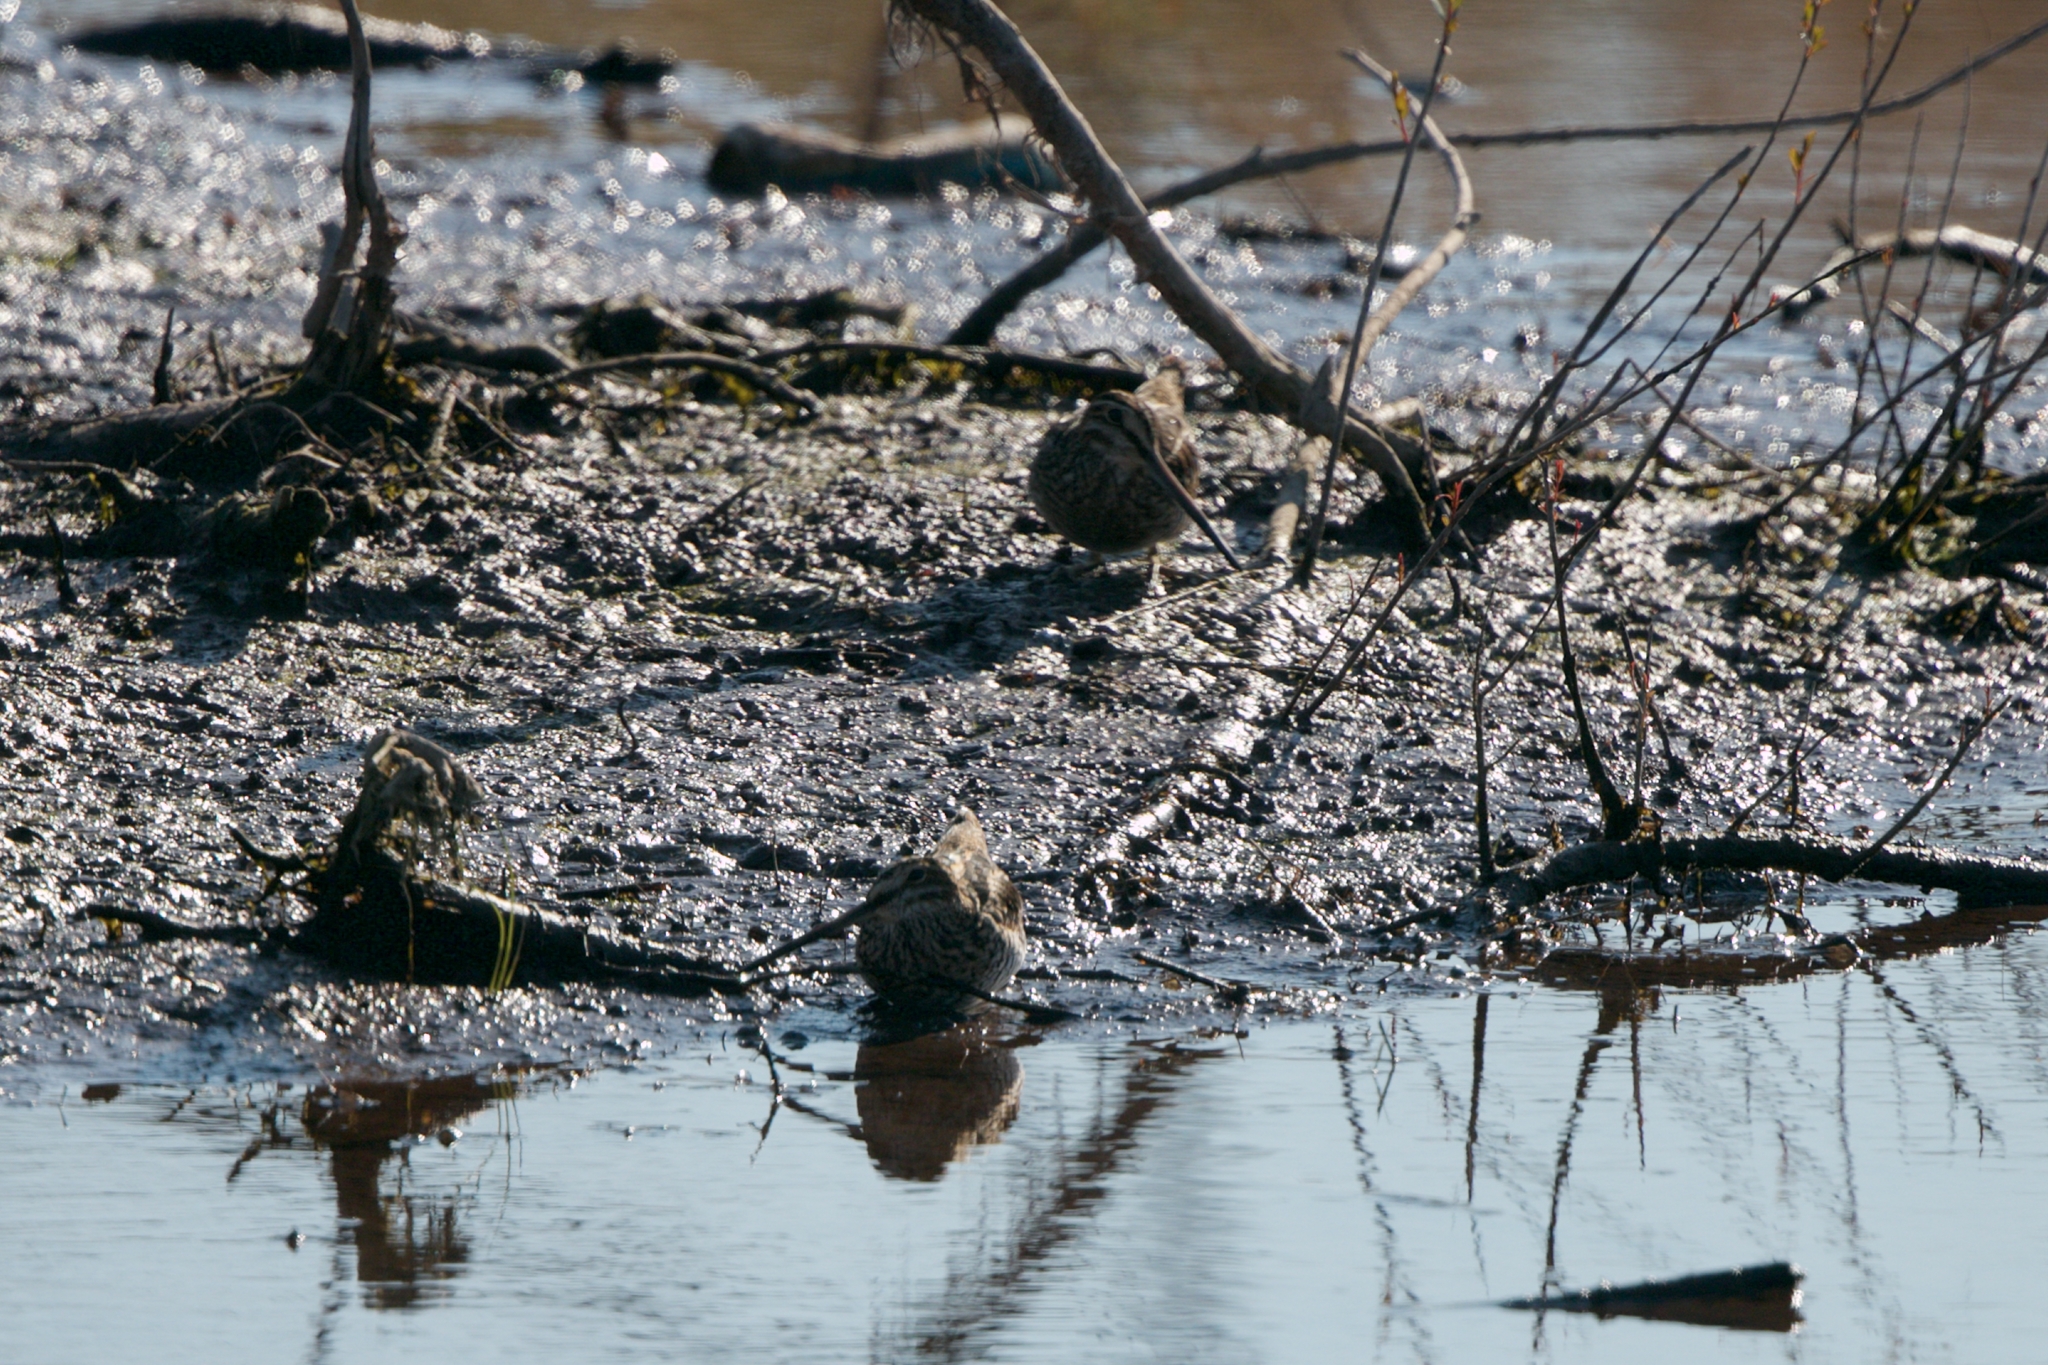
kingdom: Animalia
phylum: Chordata
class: Aves
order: Charadriiformes
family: Scolopacidae
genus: Gallinago
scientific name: Gallinago delicata
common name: Wilson's snipe
